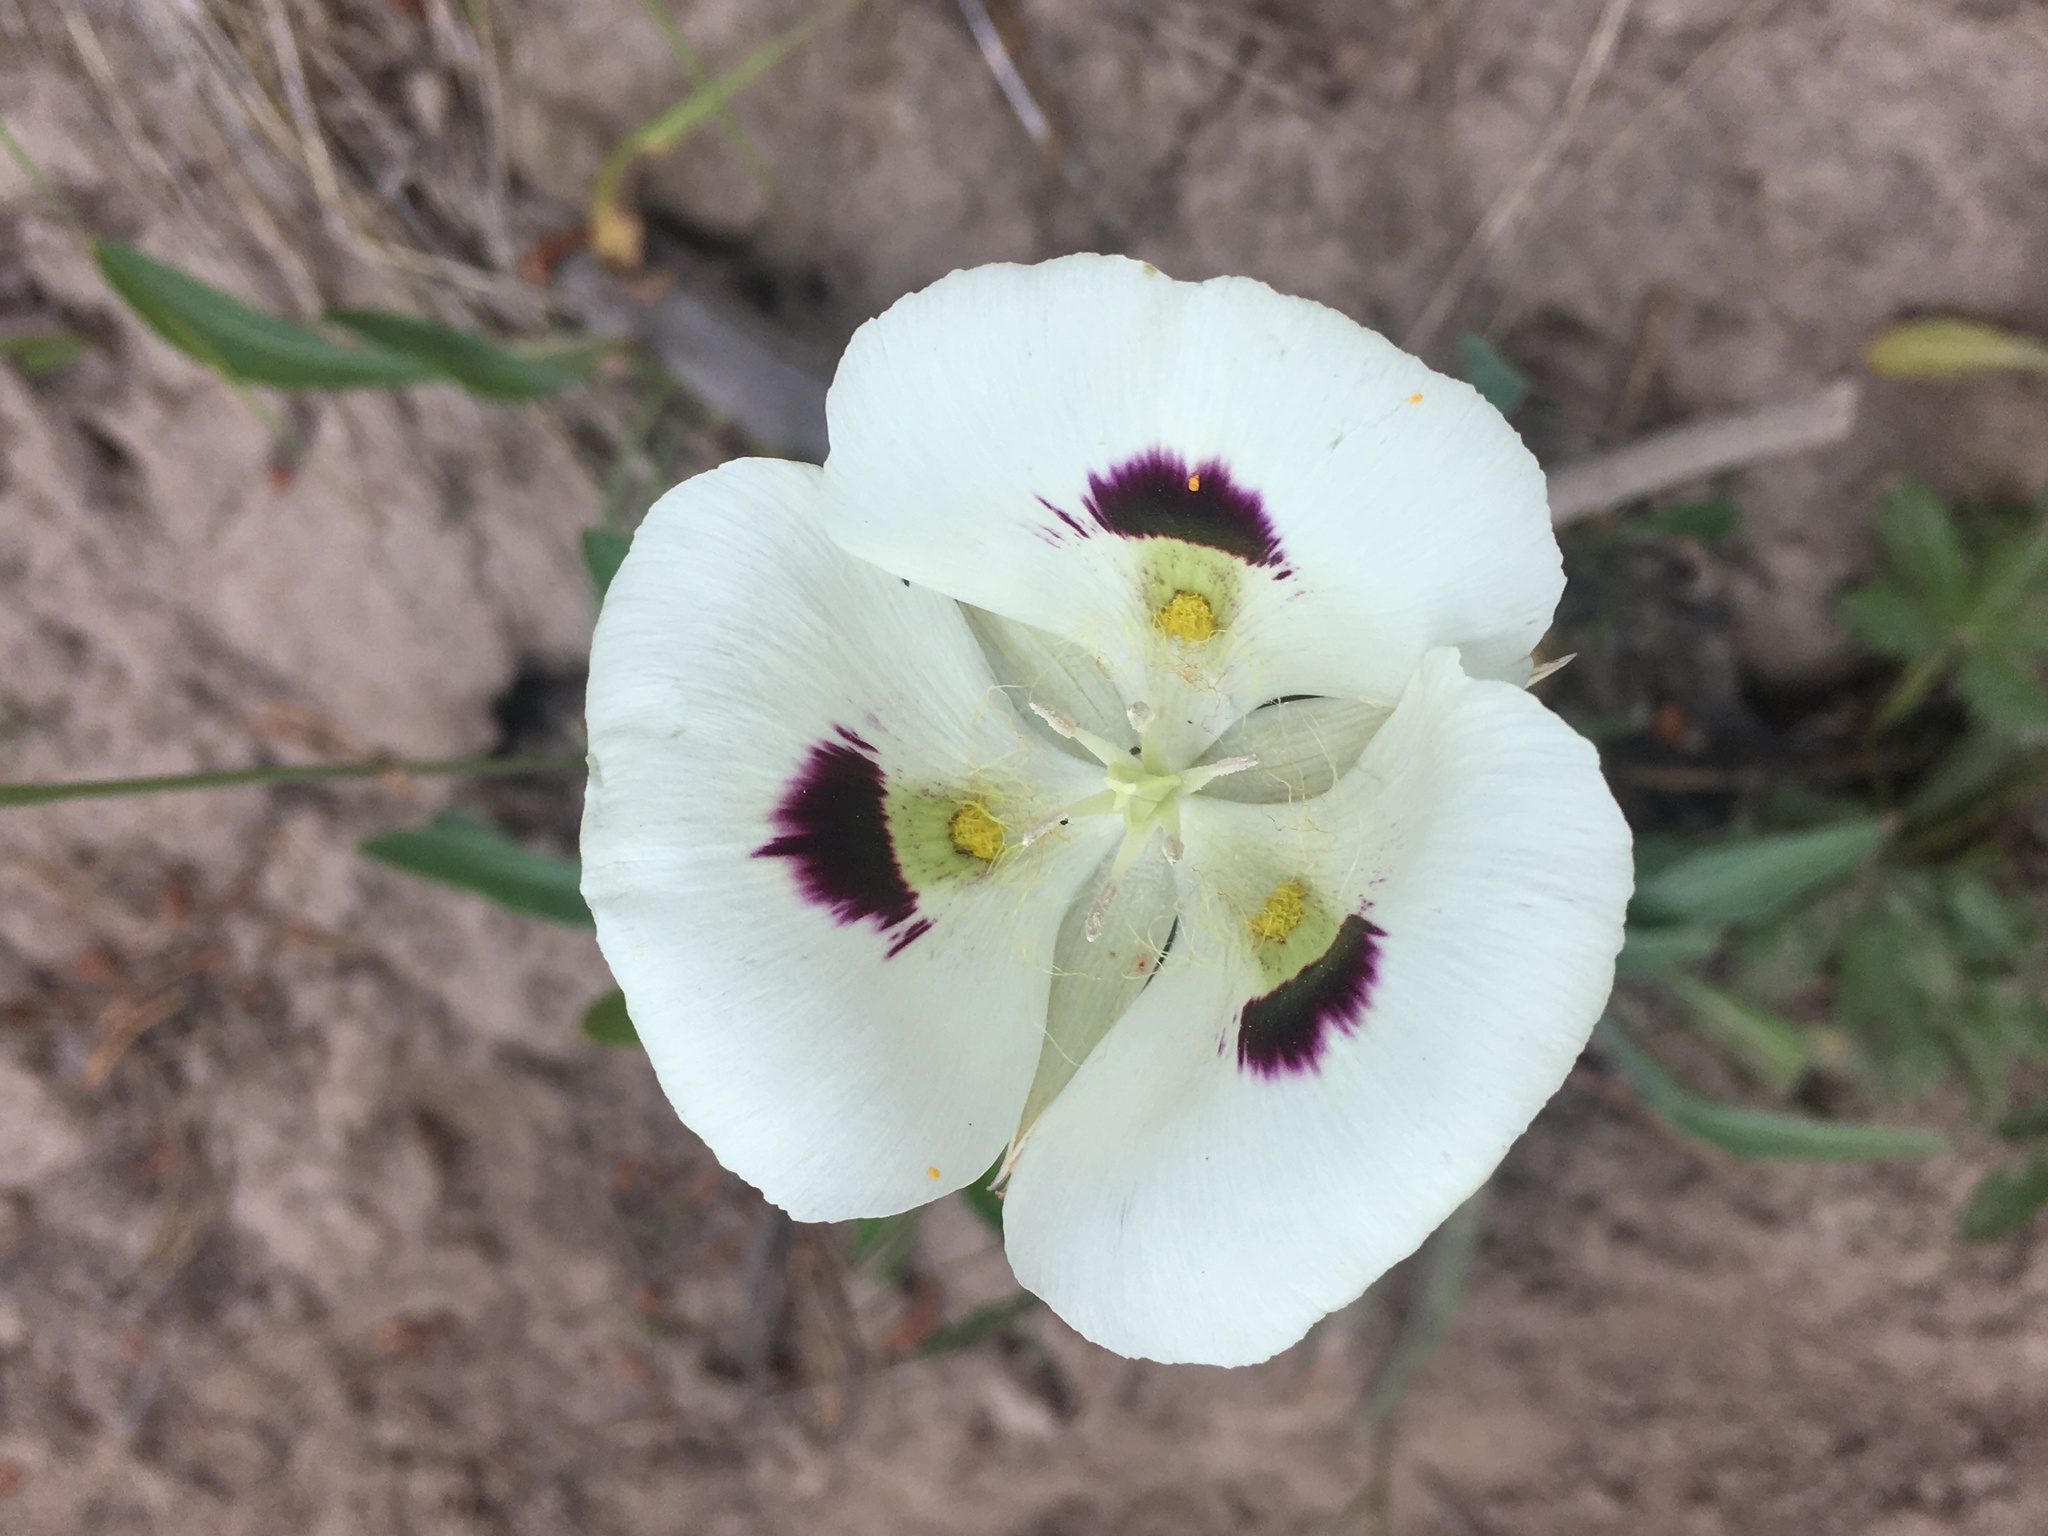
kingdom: Plantae
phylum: Tracheophyta
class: Liliopsida
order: Liliales
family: Liliaceae
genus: Calochortus
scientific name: Calochortus eurycarpus
